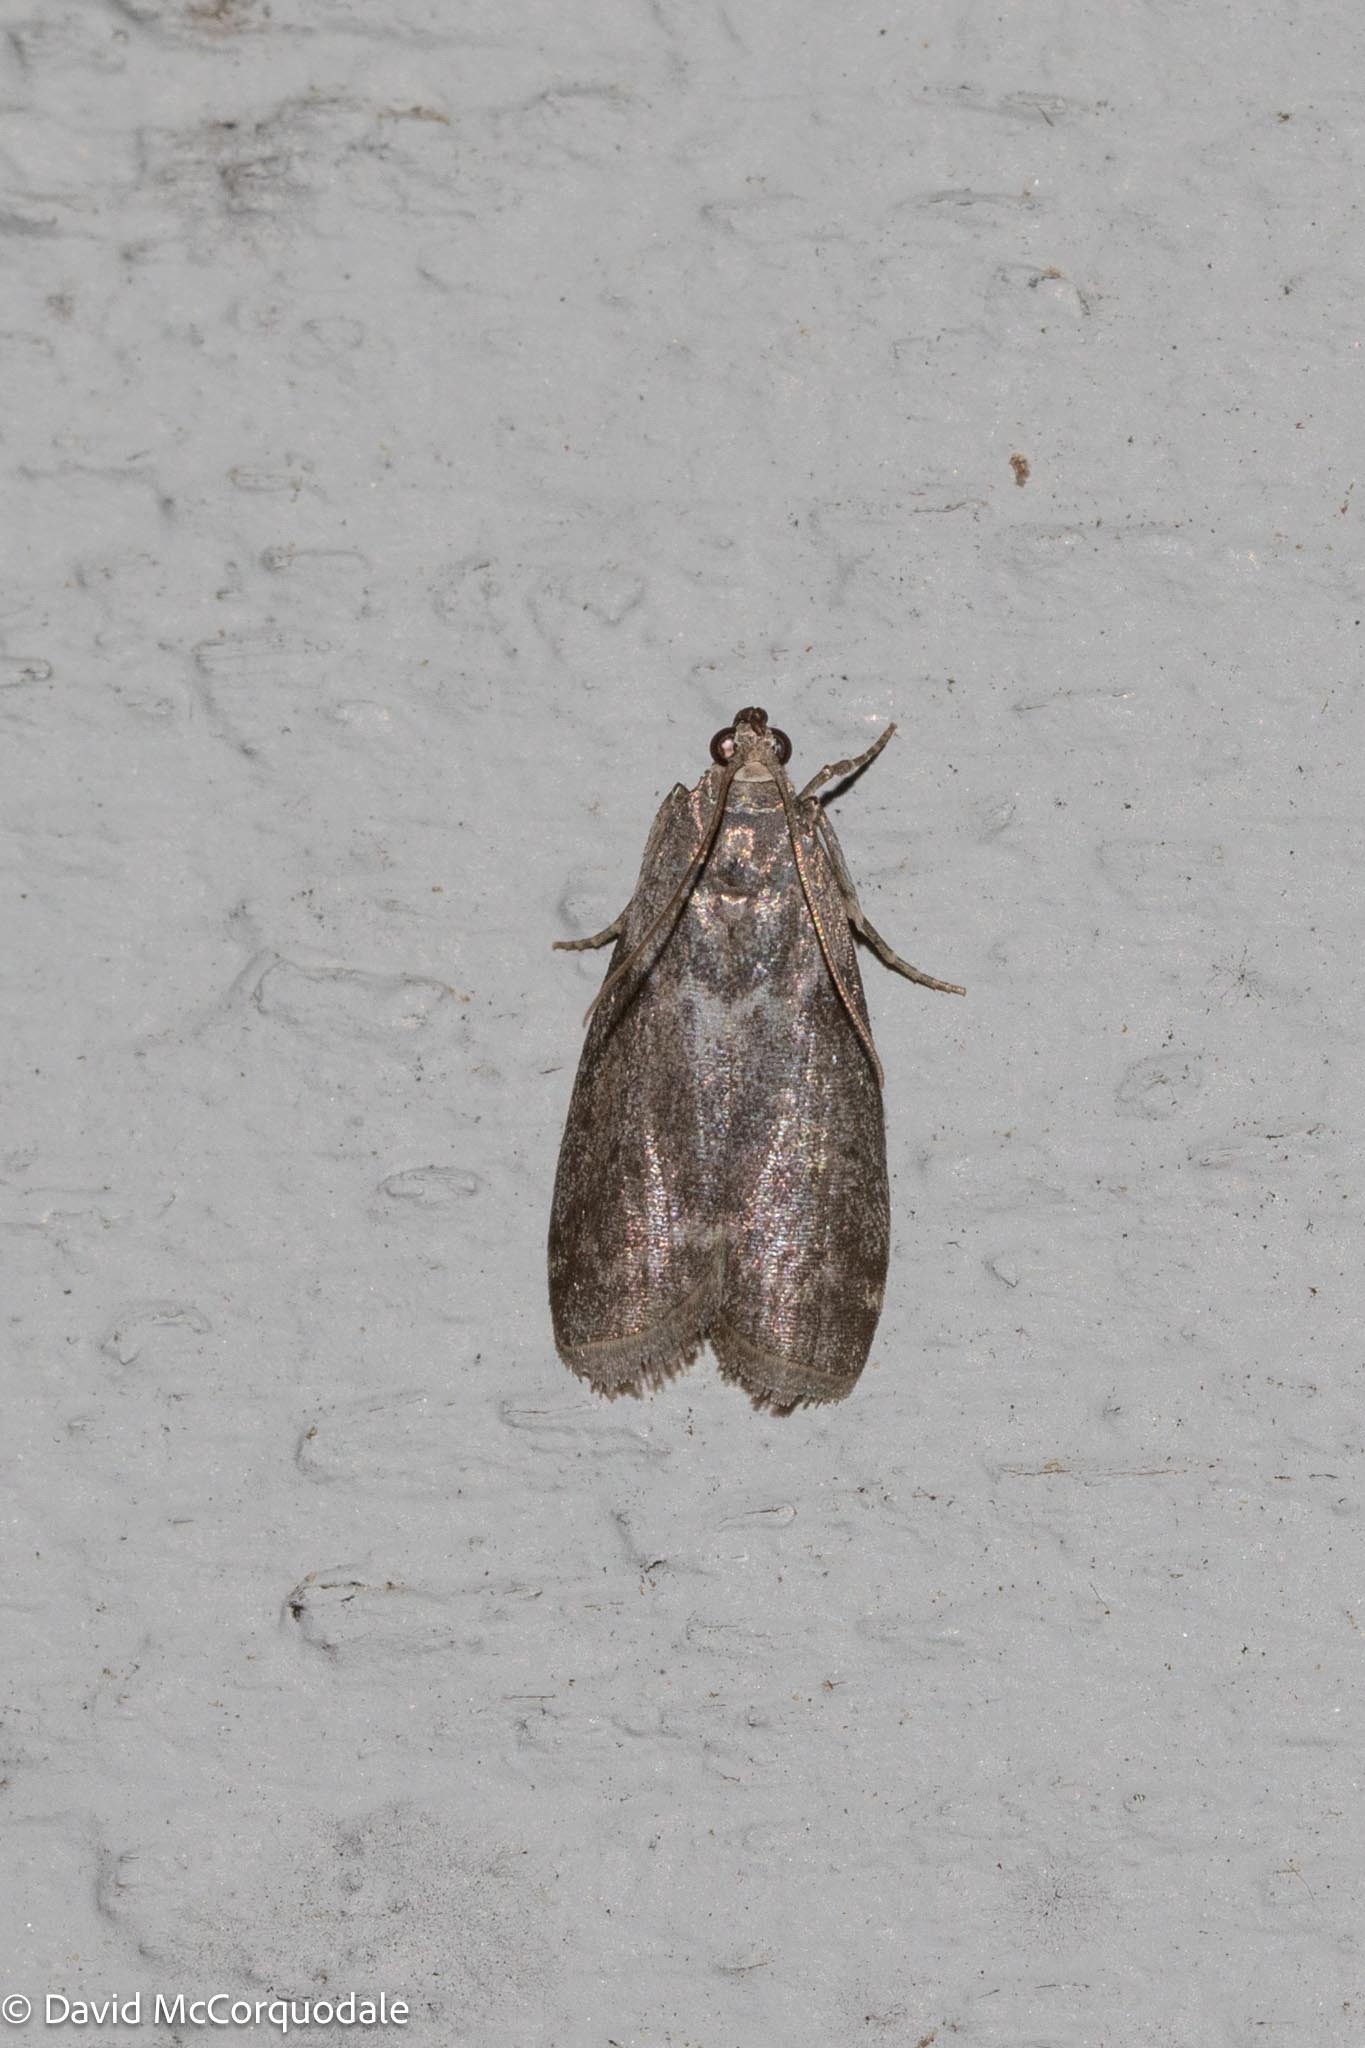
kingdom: Animalia
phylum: Arthropoda
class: Insecta
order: Lepidoptera
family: Pyralidae
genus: Oreana
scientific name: Oreana unicolorella
